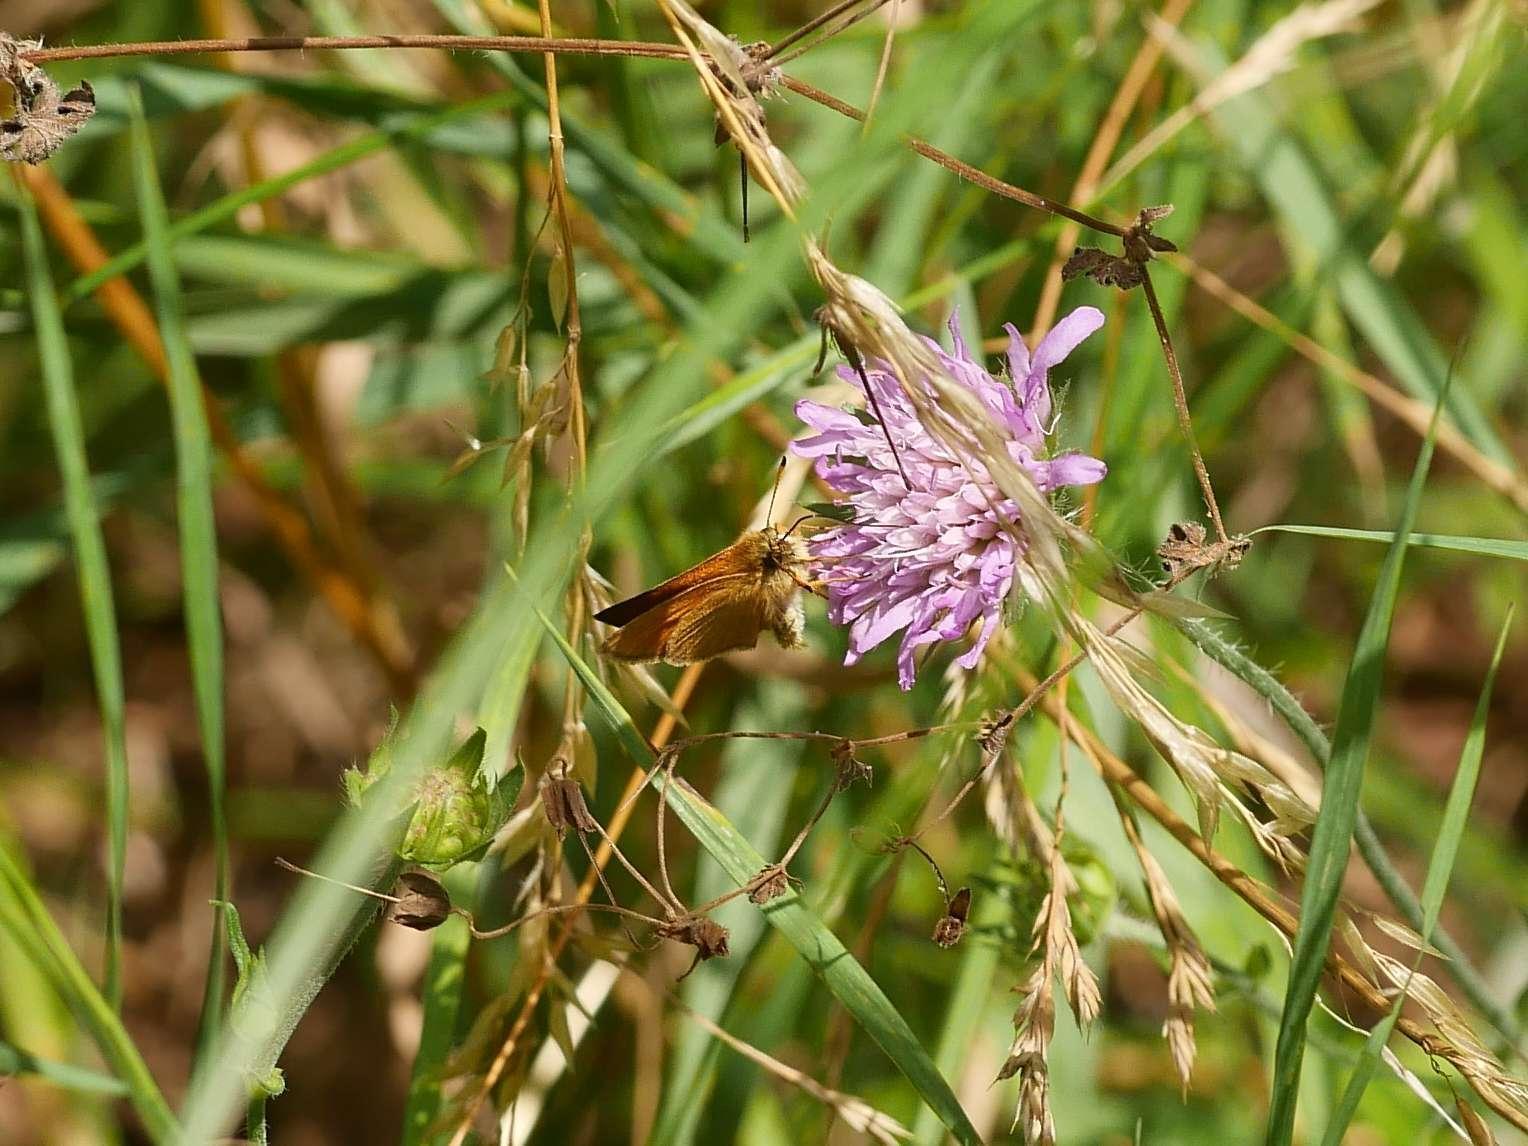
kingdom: Animalia
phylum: Arthropoda
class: Insecta
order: Lepidoptera
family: Hesperiidae
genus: Thymelicus
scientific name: Thymelicus lineola
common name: Essex skipper
